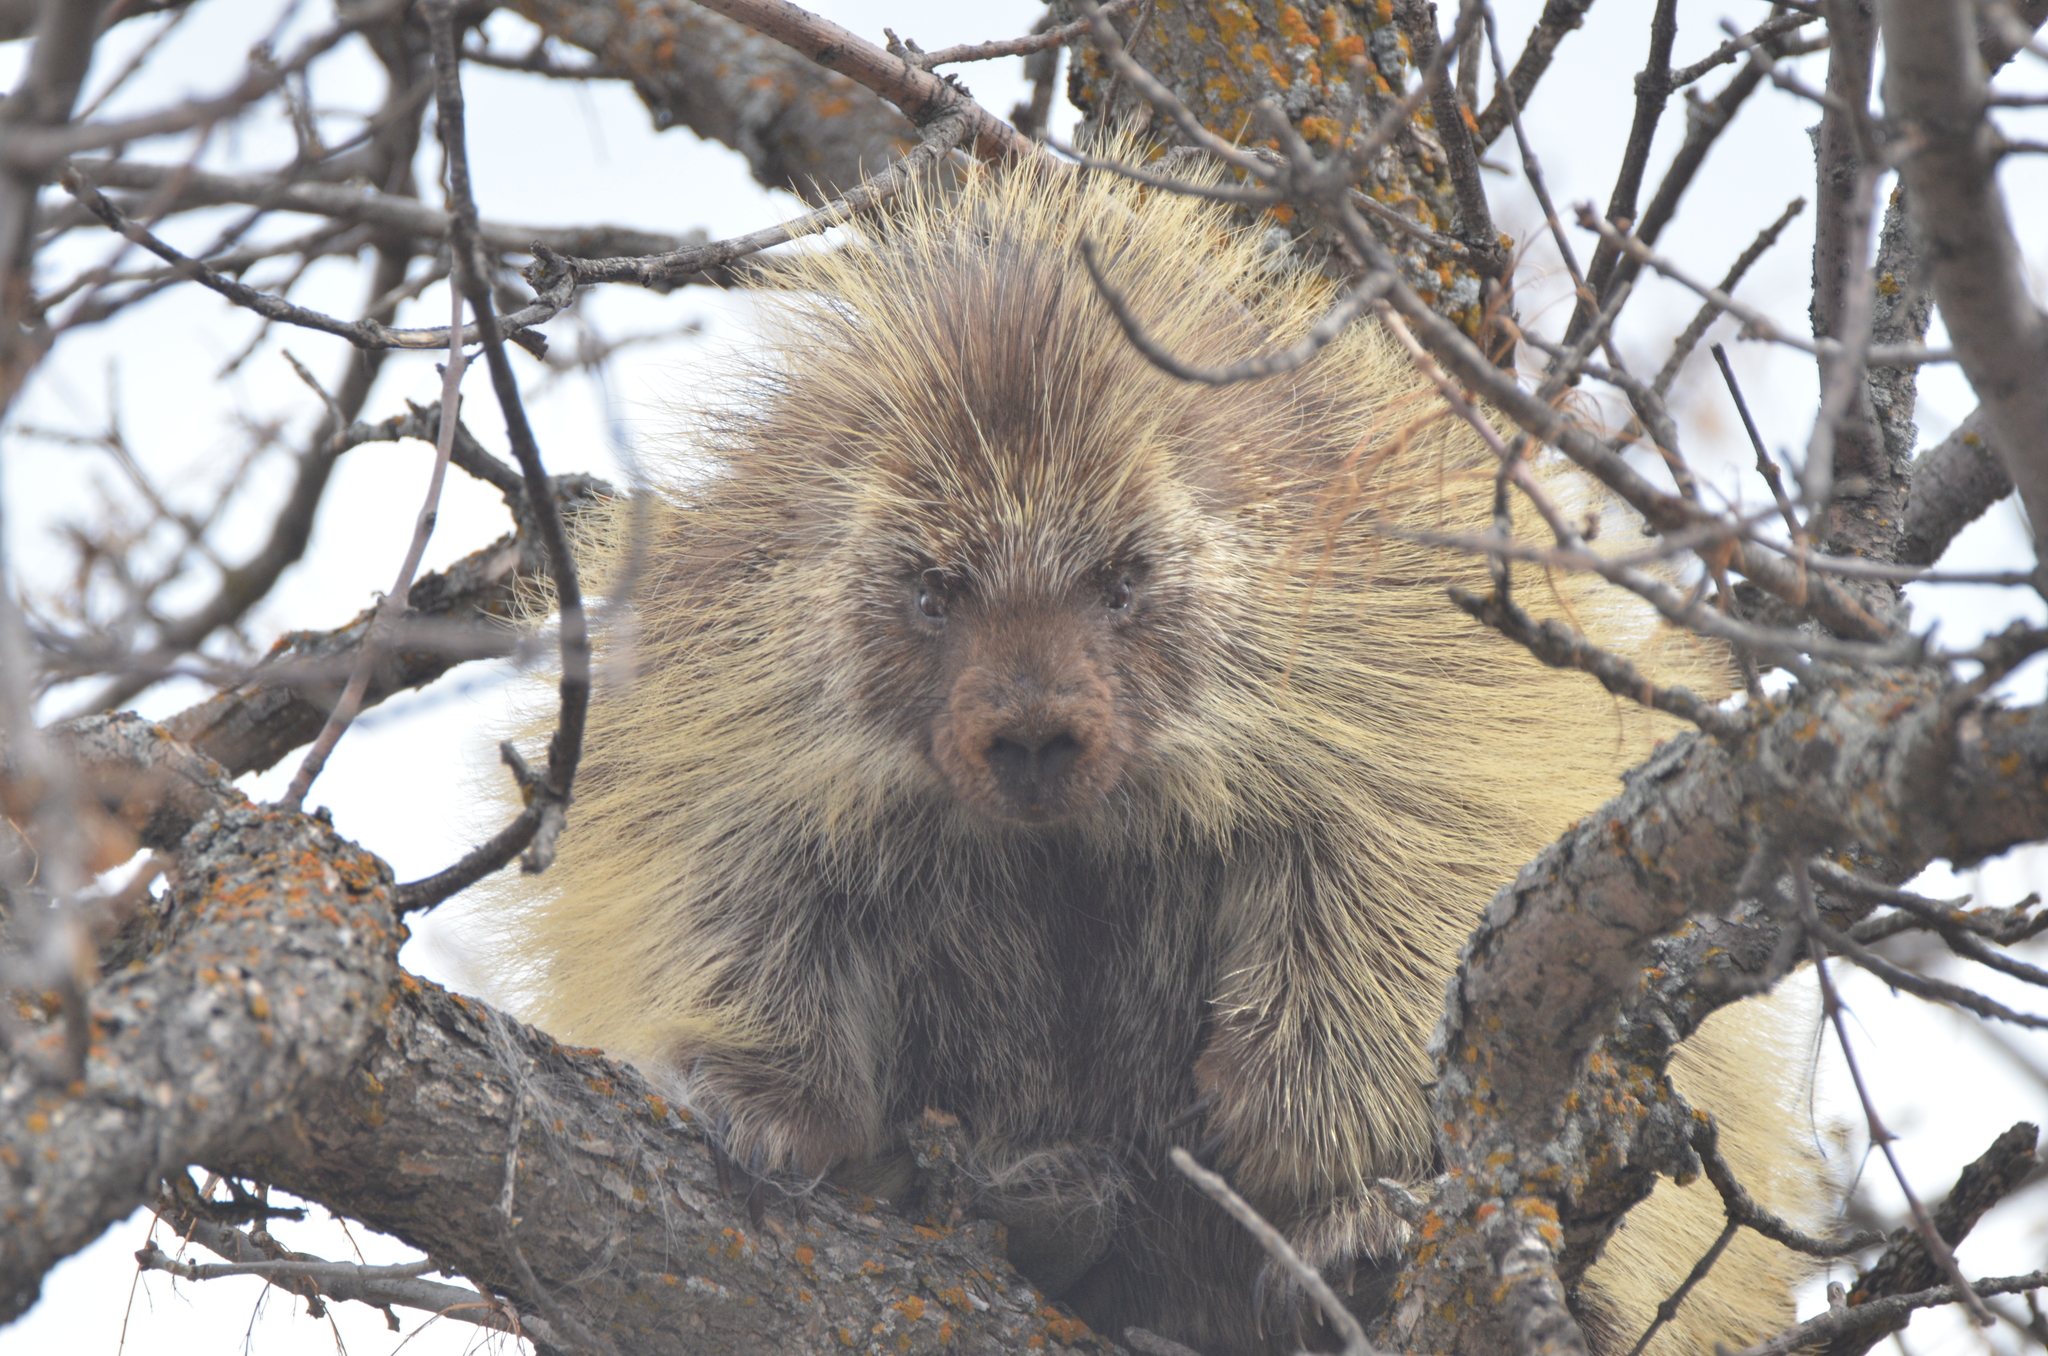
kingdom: Animalia
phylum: Chordata
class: Mammalia
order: Rodentia
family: Erethizontidae
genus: Erethizon
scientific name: Erethizon dorsatus
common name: North american porcupine
